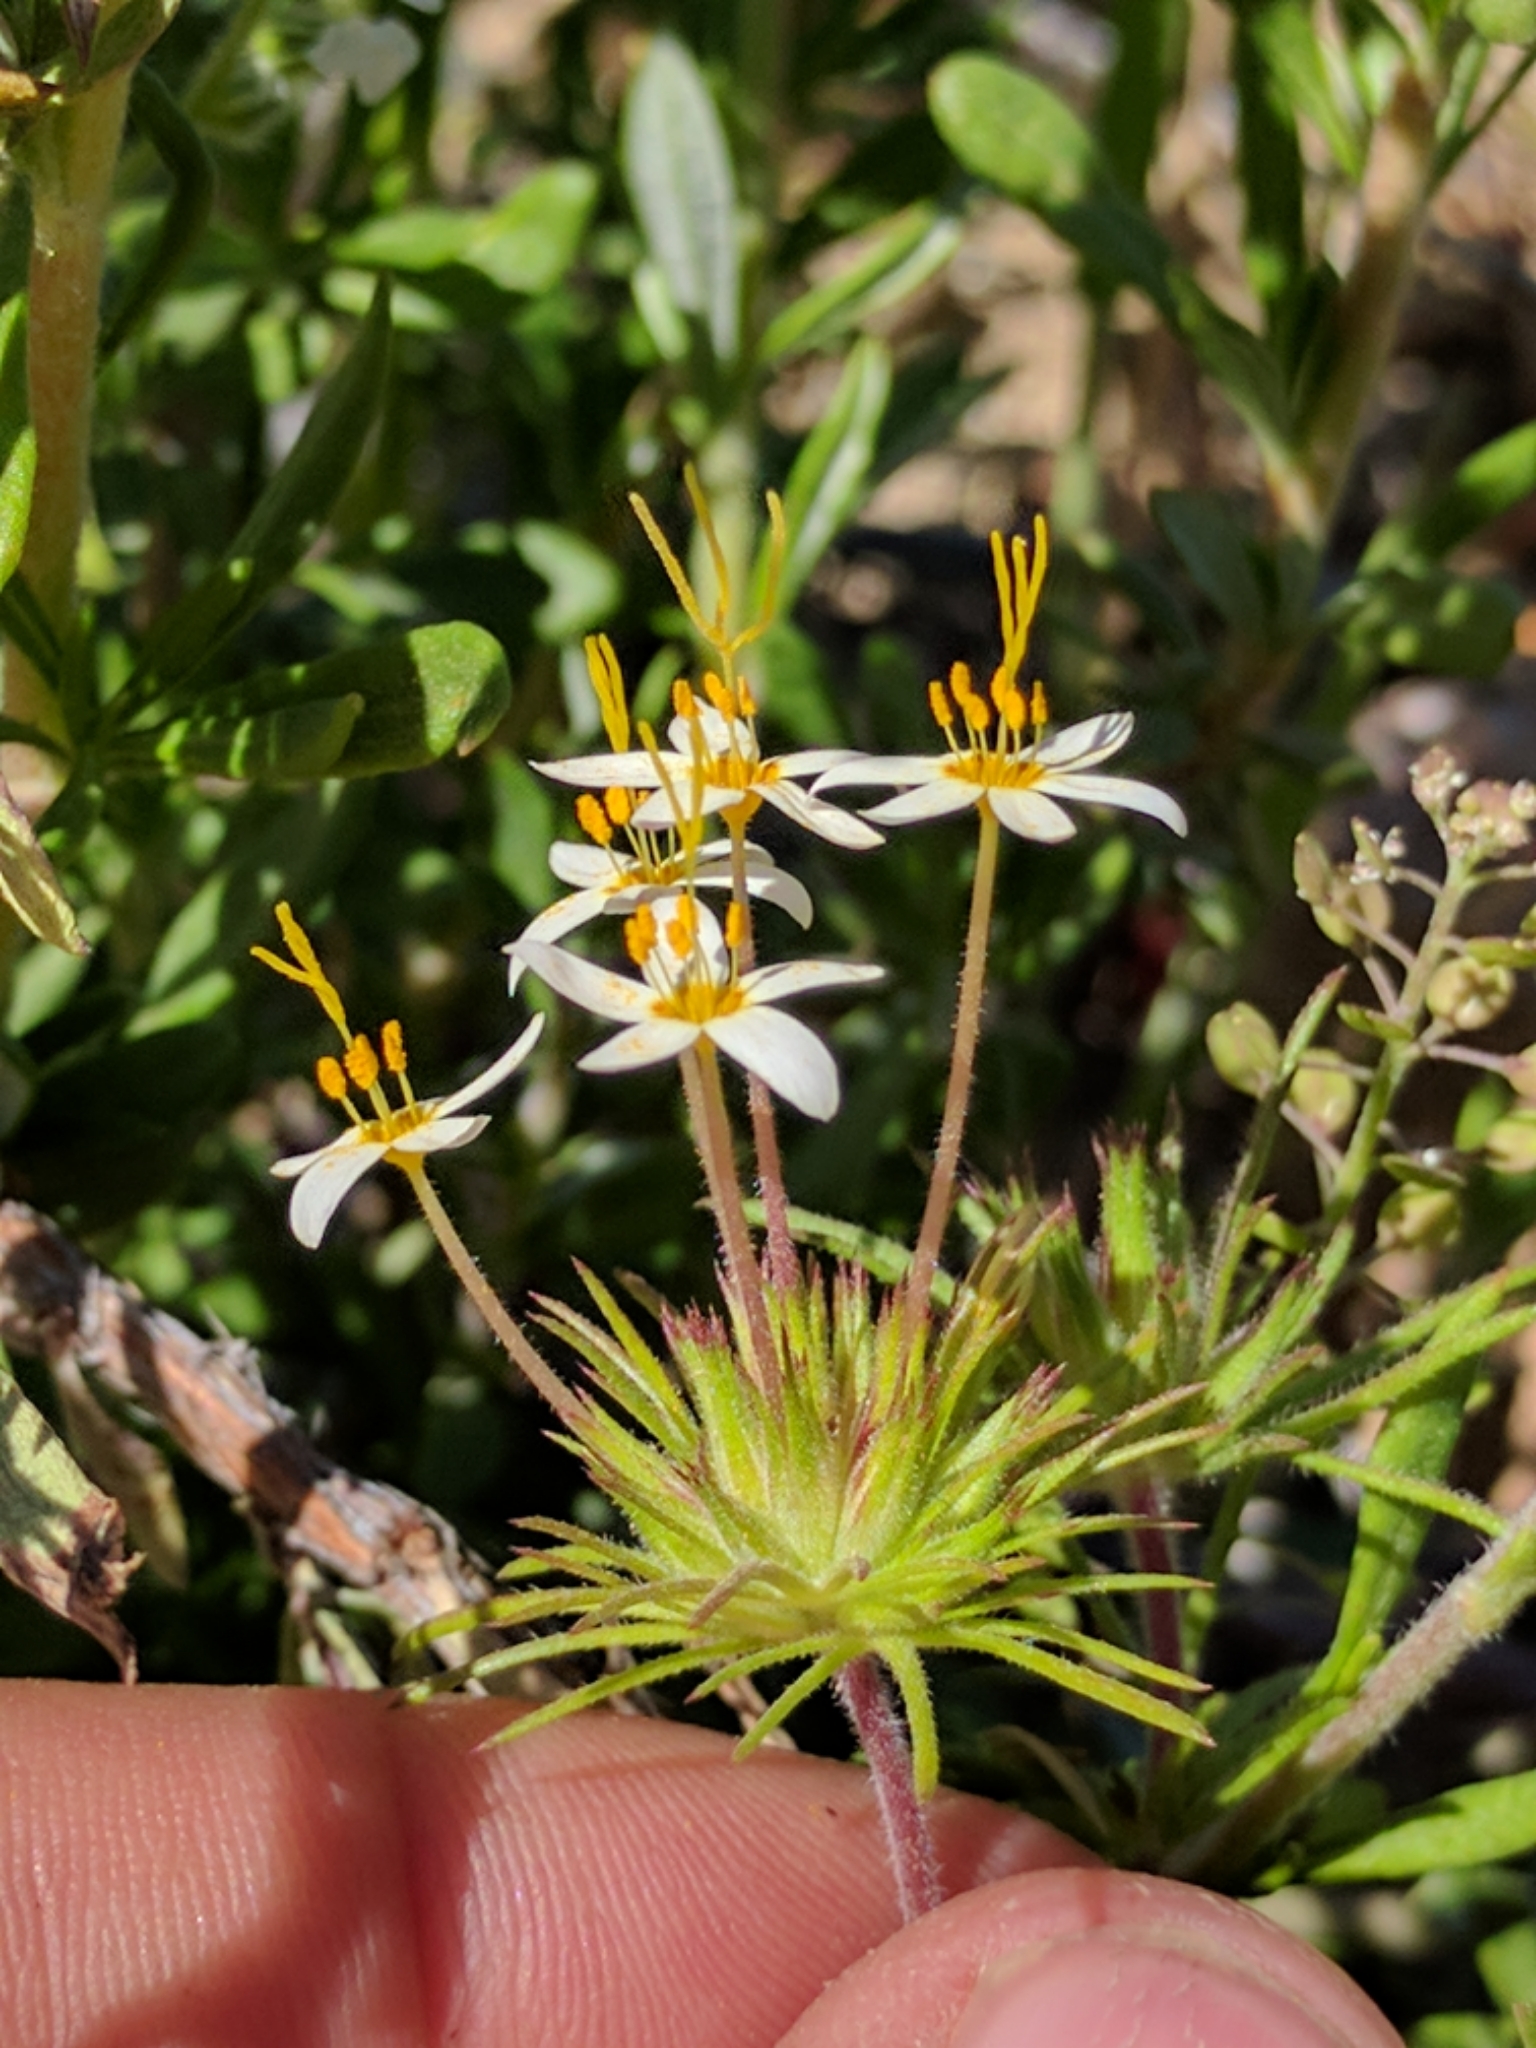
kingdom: Plantae
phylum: Tracheophyta
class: Magnoliopsida
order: Ericales
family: Polemoniaceae
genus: Leptosiphon
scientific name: Leptosiphon parviflorus
